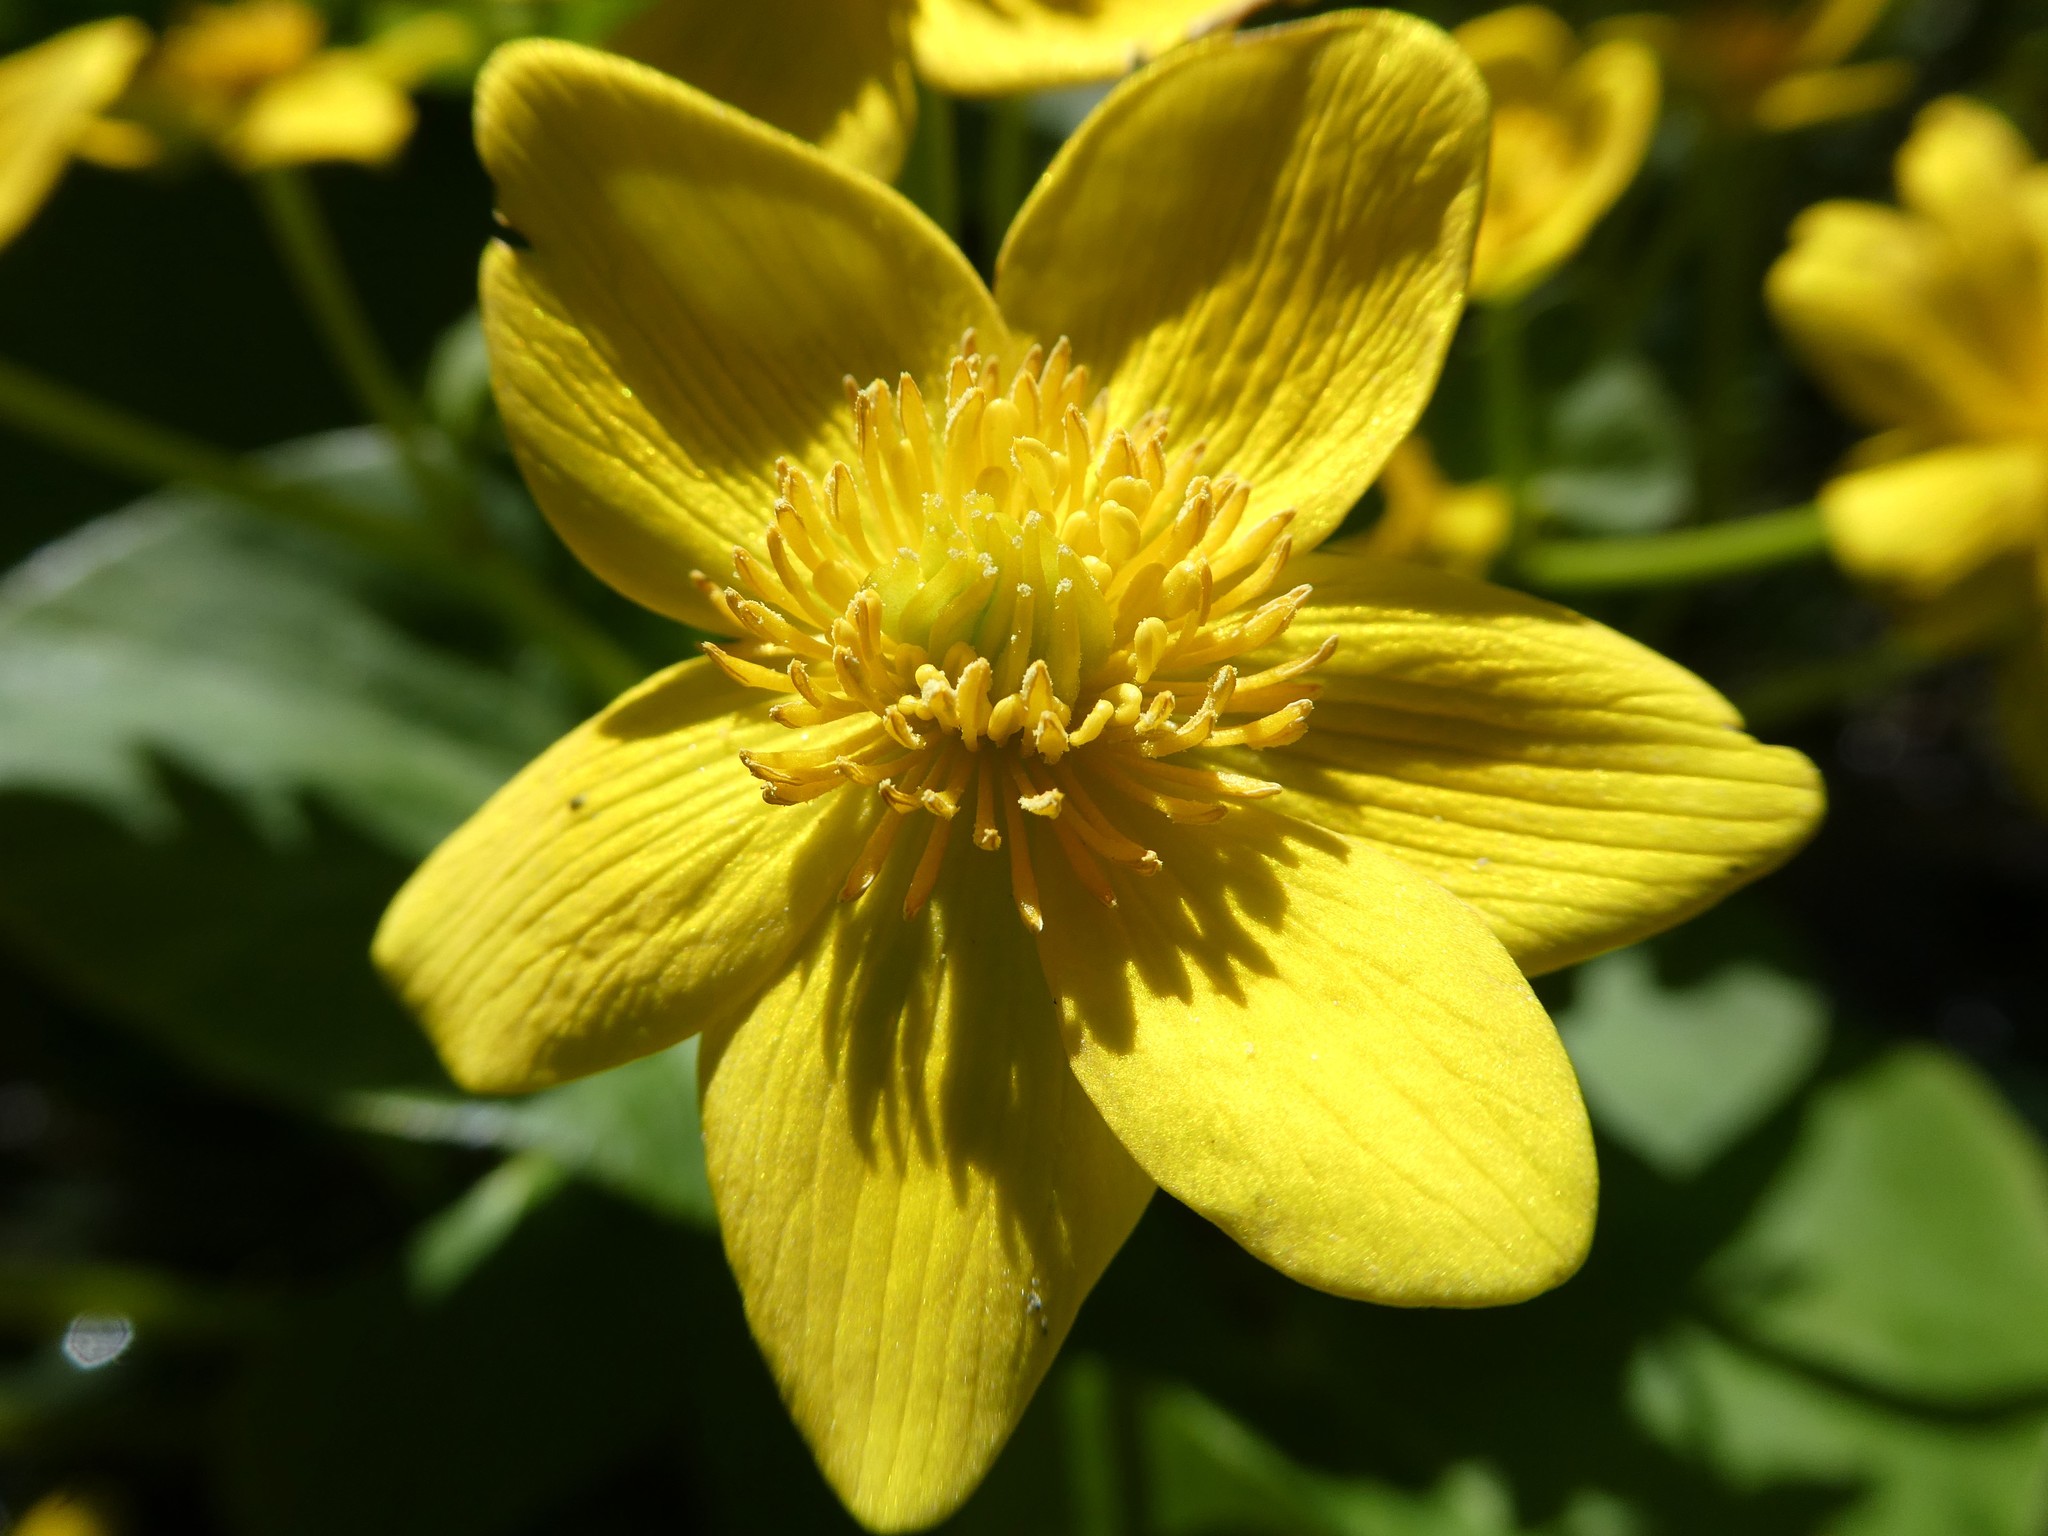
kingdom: Plantae
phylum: Tracheophyta
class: Magnoliopsida
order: Ranunculales
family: Ranunculaceae
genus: Caltha
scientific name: Caltha palustris
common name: Marsh marigold
